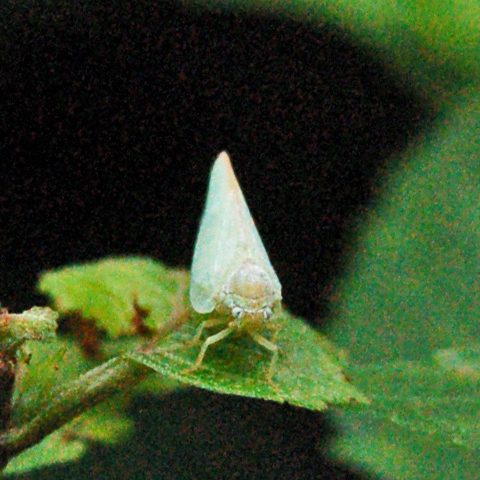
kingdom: Animalia
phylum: Arthropoda
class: Insecta
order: Hemiptera
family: Flatidae
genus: Ormenoides
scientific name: Ormenoides venusta
